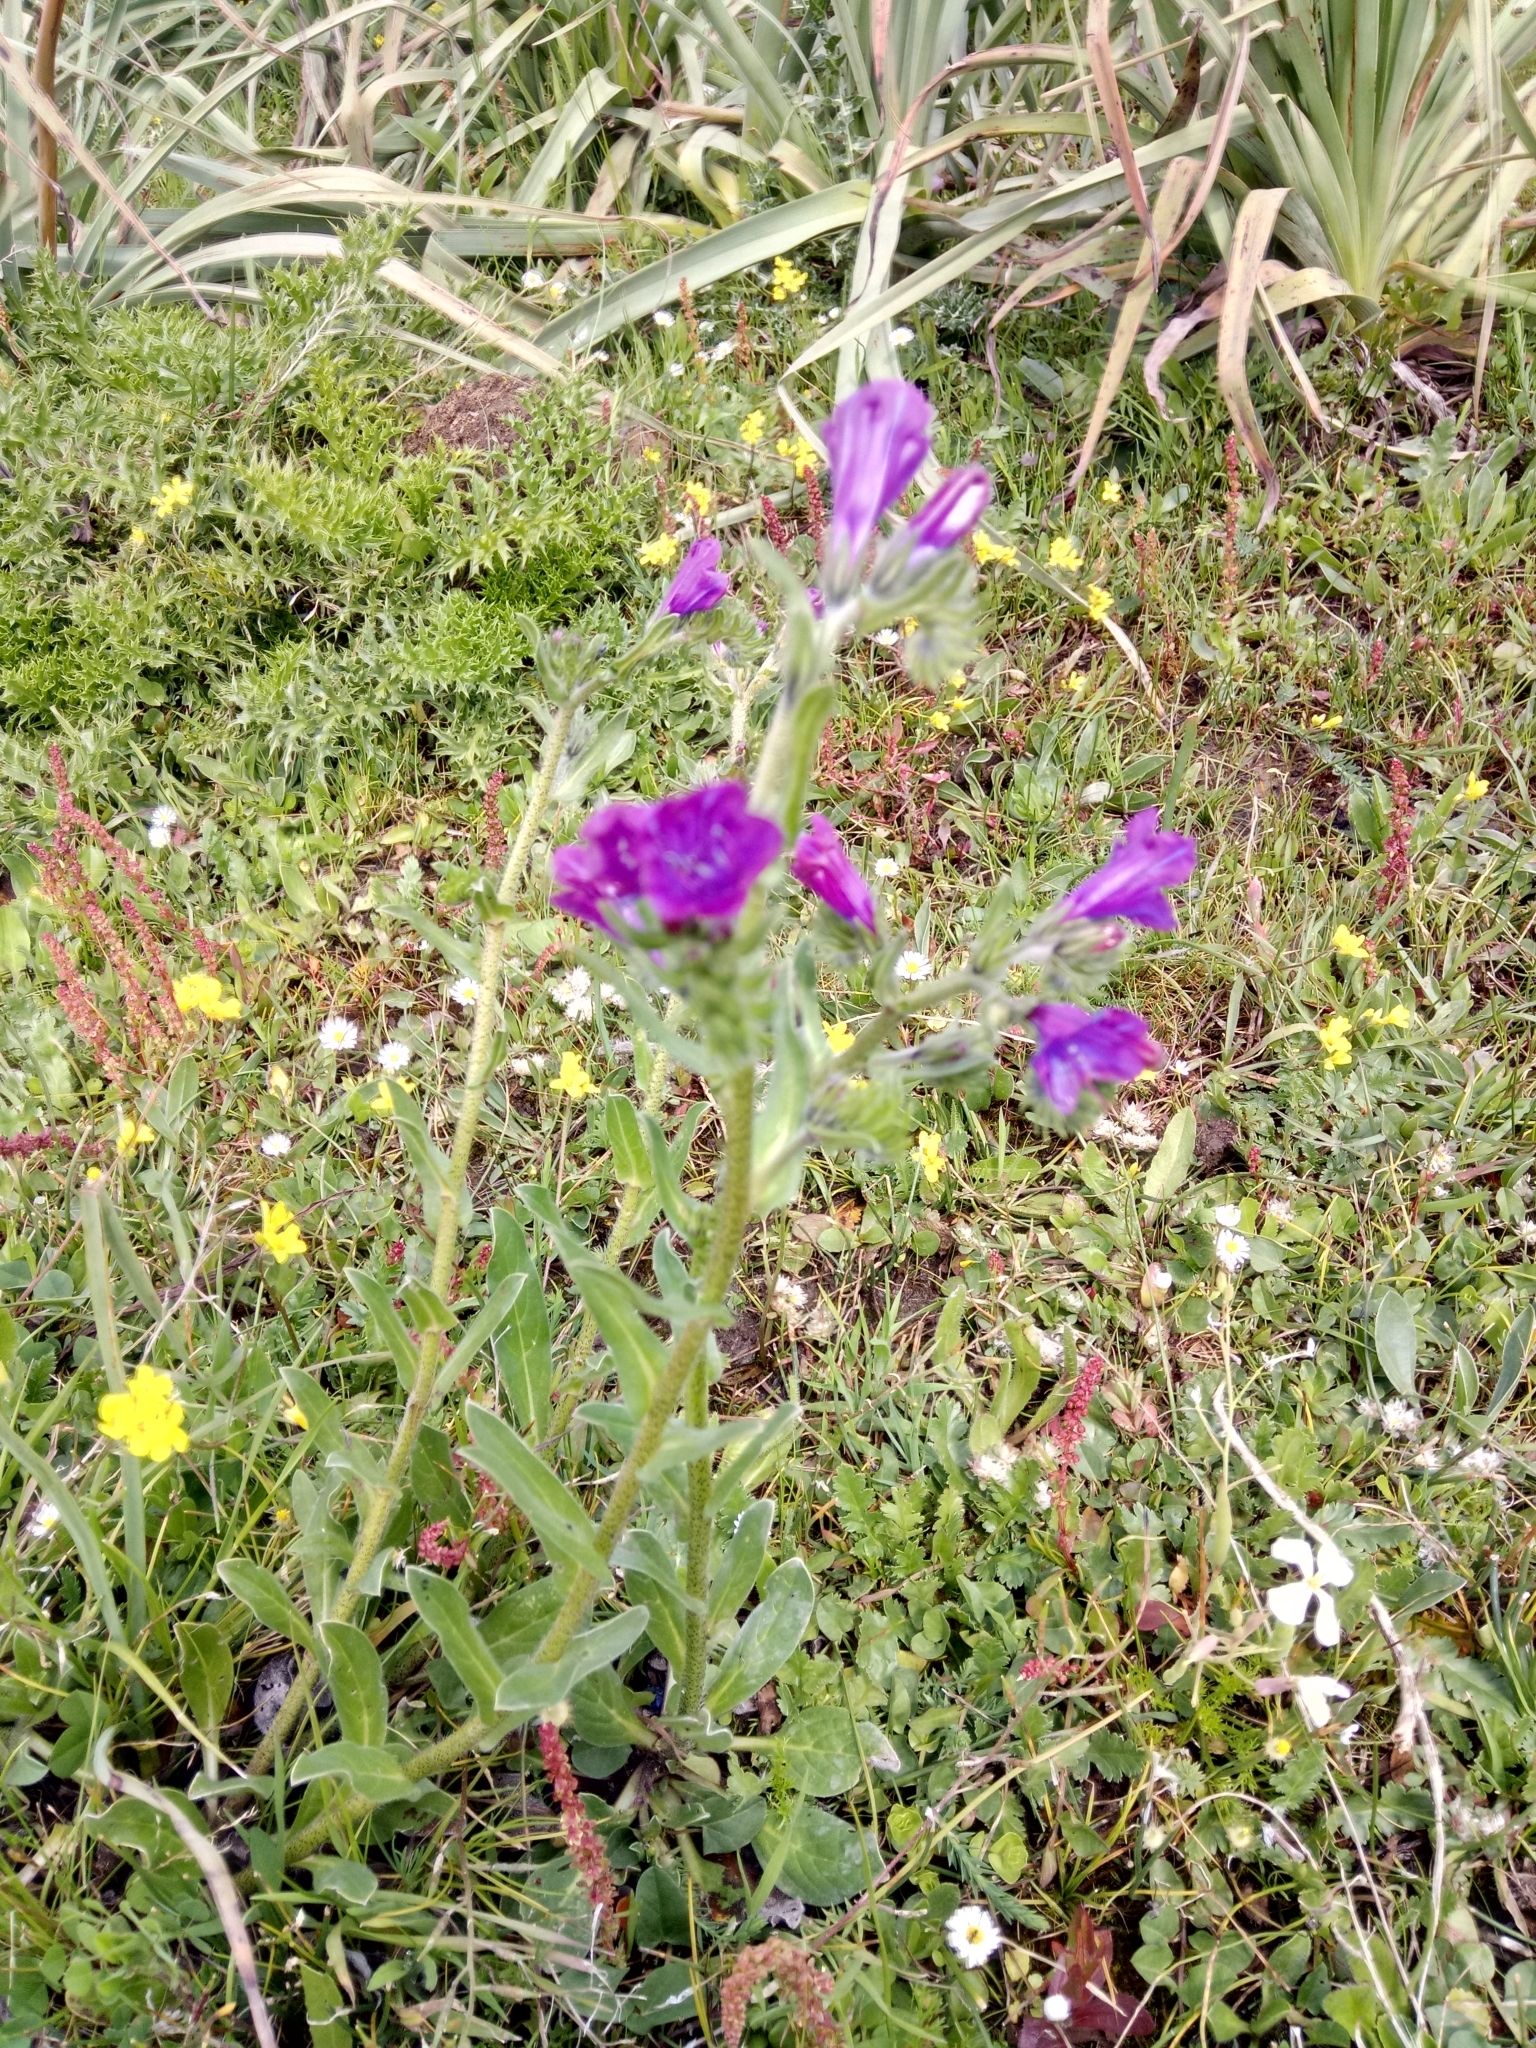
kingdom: Plantae
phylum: Tracheophyta
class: Magnoliopsida
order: Boraginales
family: Boraginaceae
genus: Echium
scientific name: Echium plantagineum
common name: Purple viper's-bugloss
